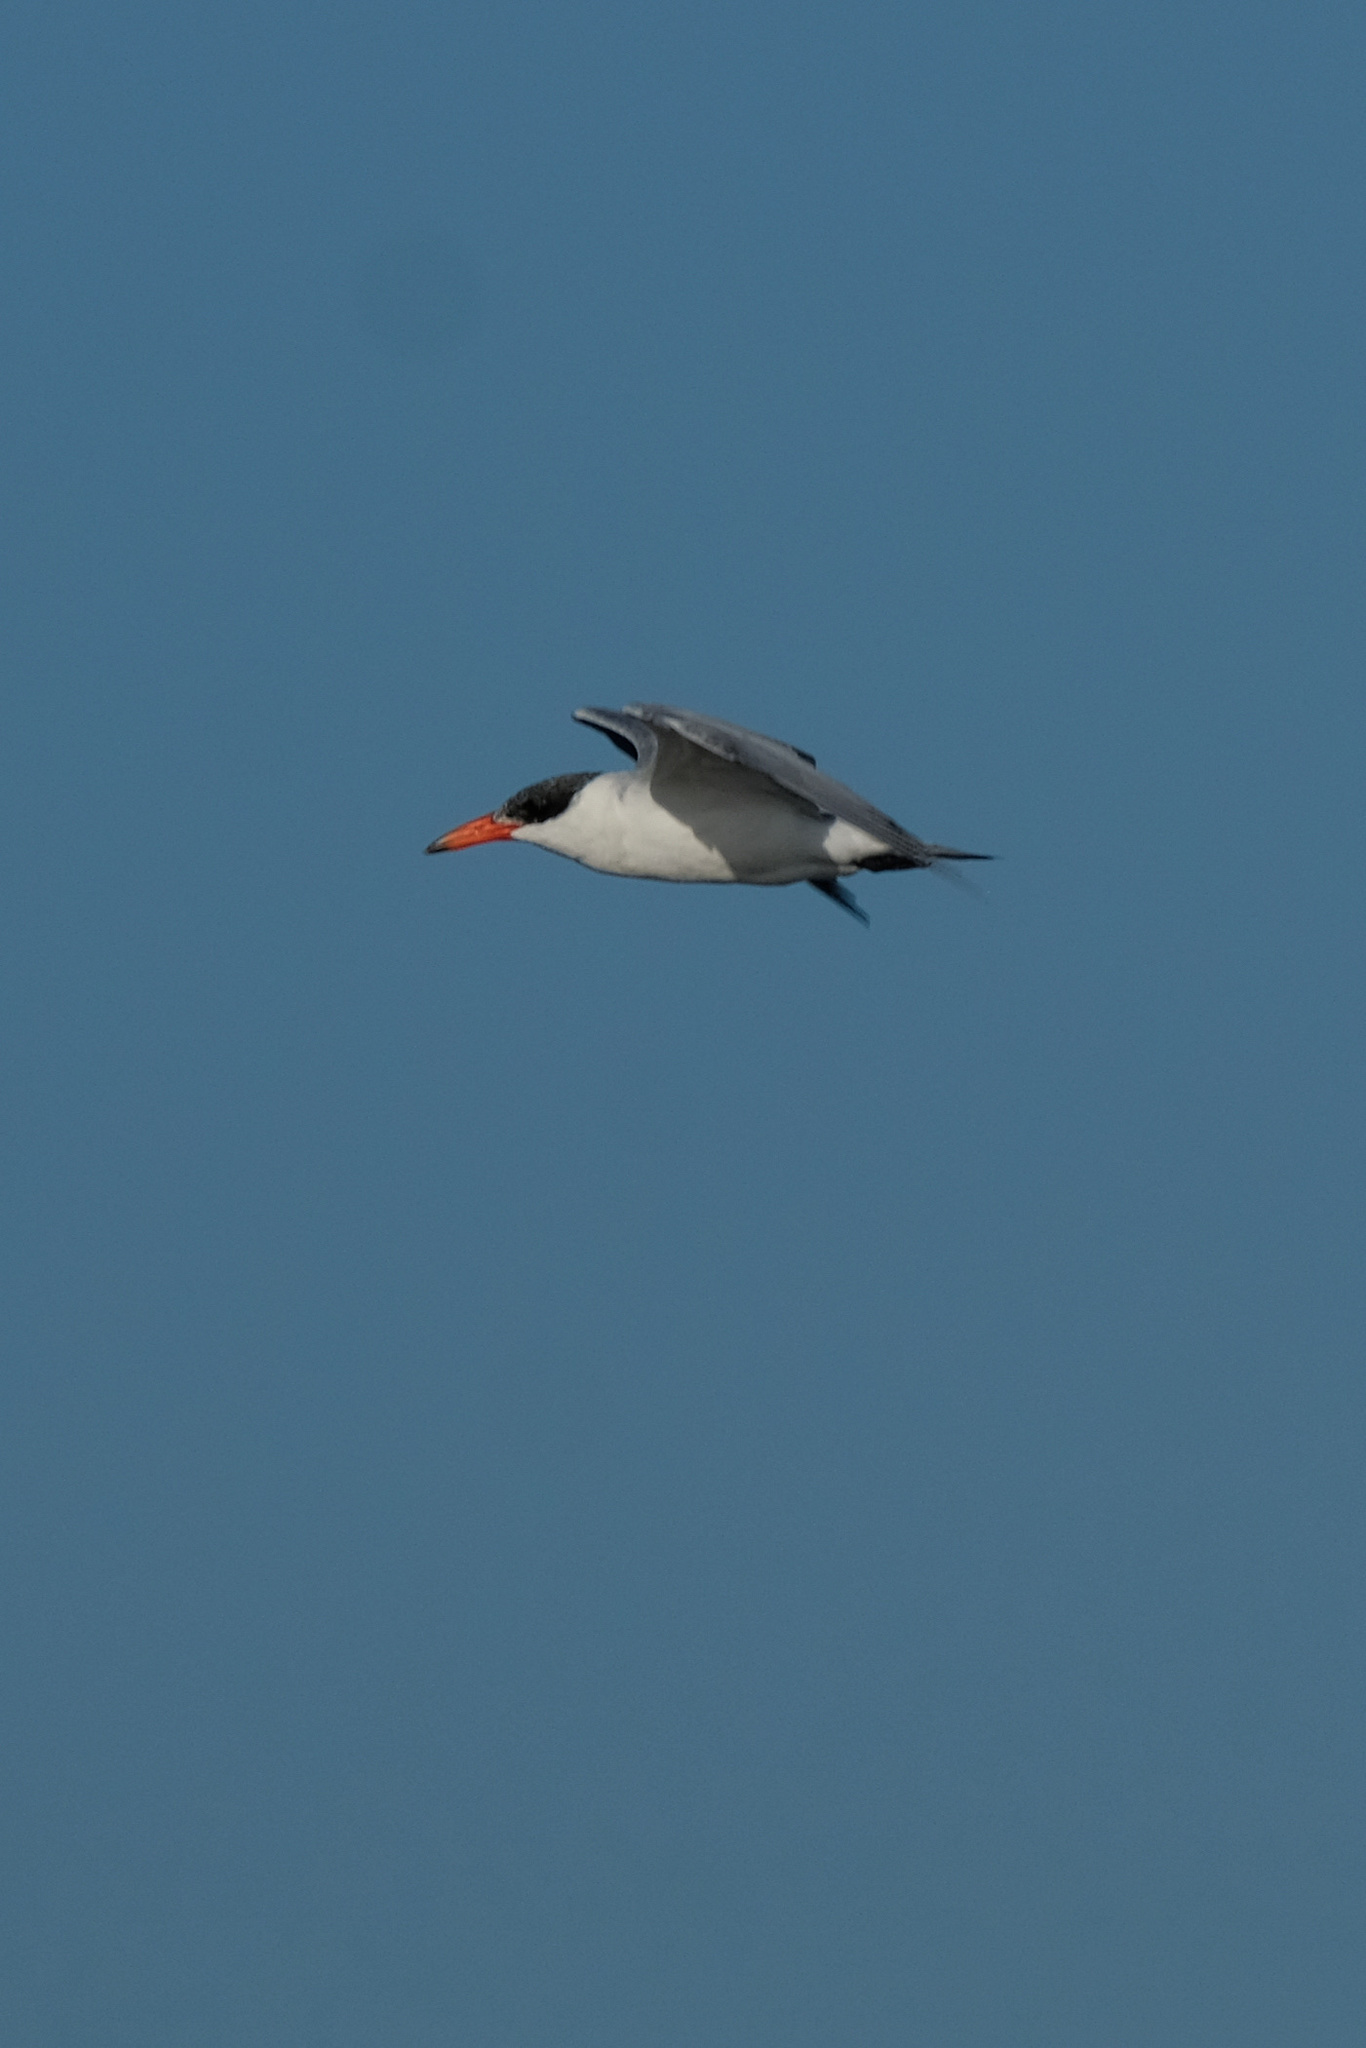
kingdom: Animalia
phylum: Chordata
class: Aves
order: Charadriiformes
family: Laridae
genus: Hydroprogne
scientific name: Hydroprogne caspia
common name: Caspian tern
